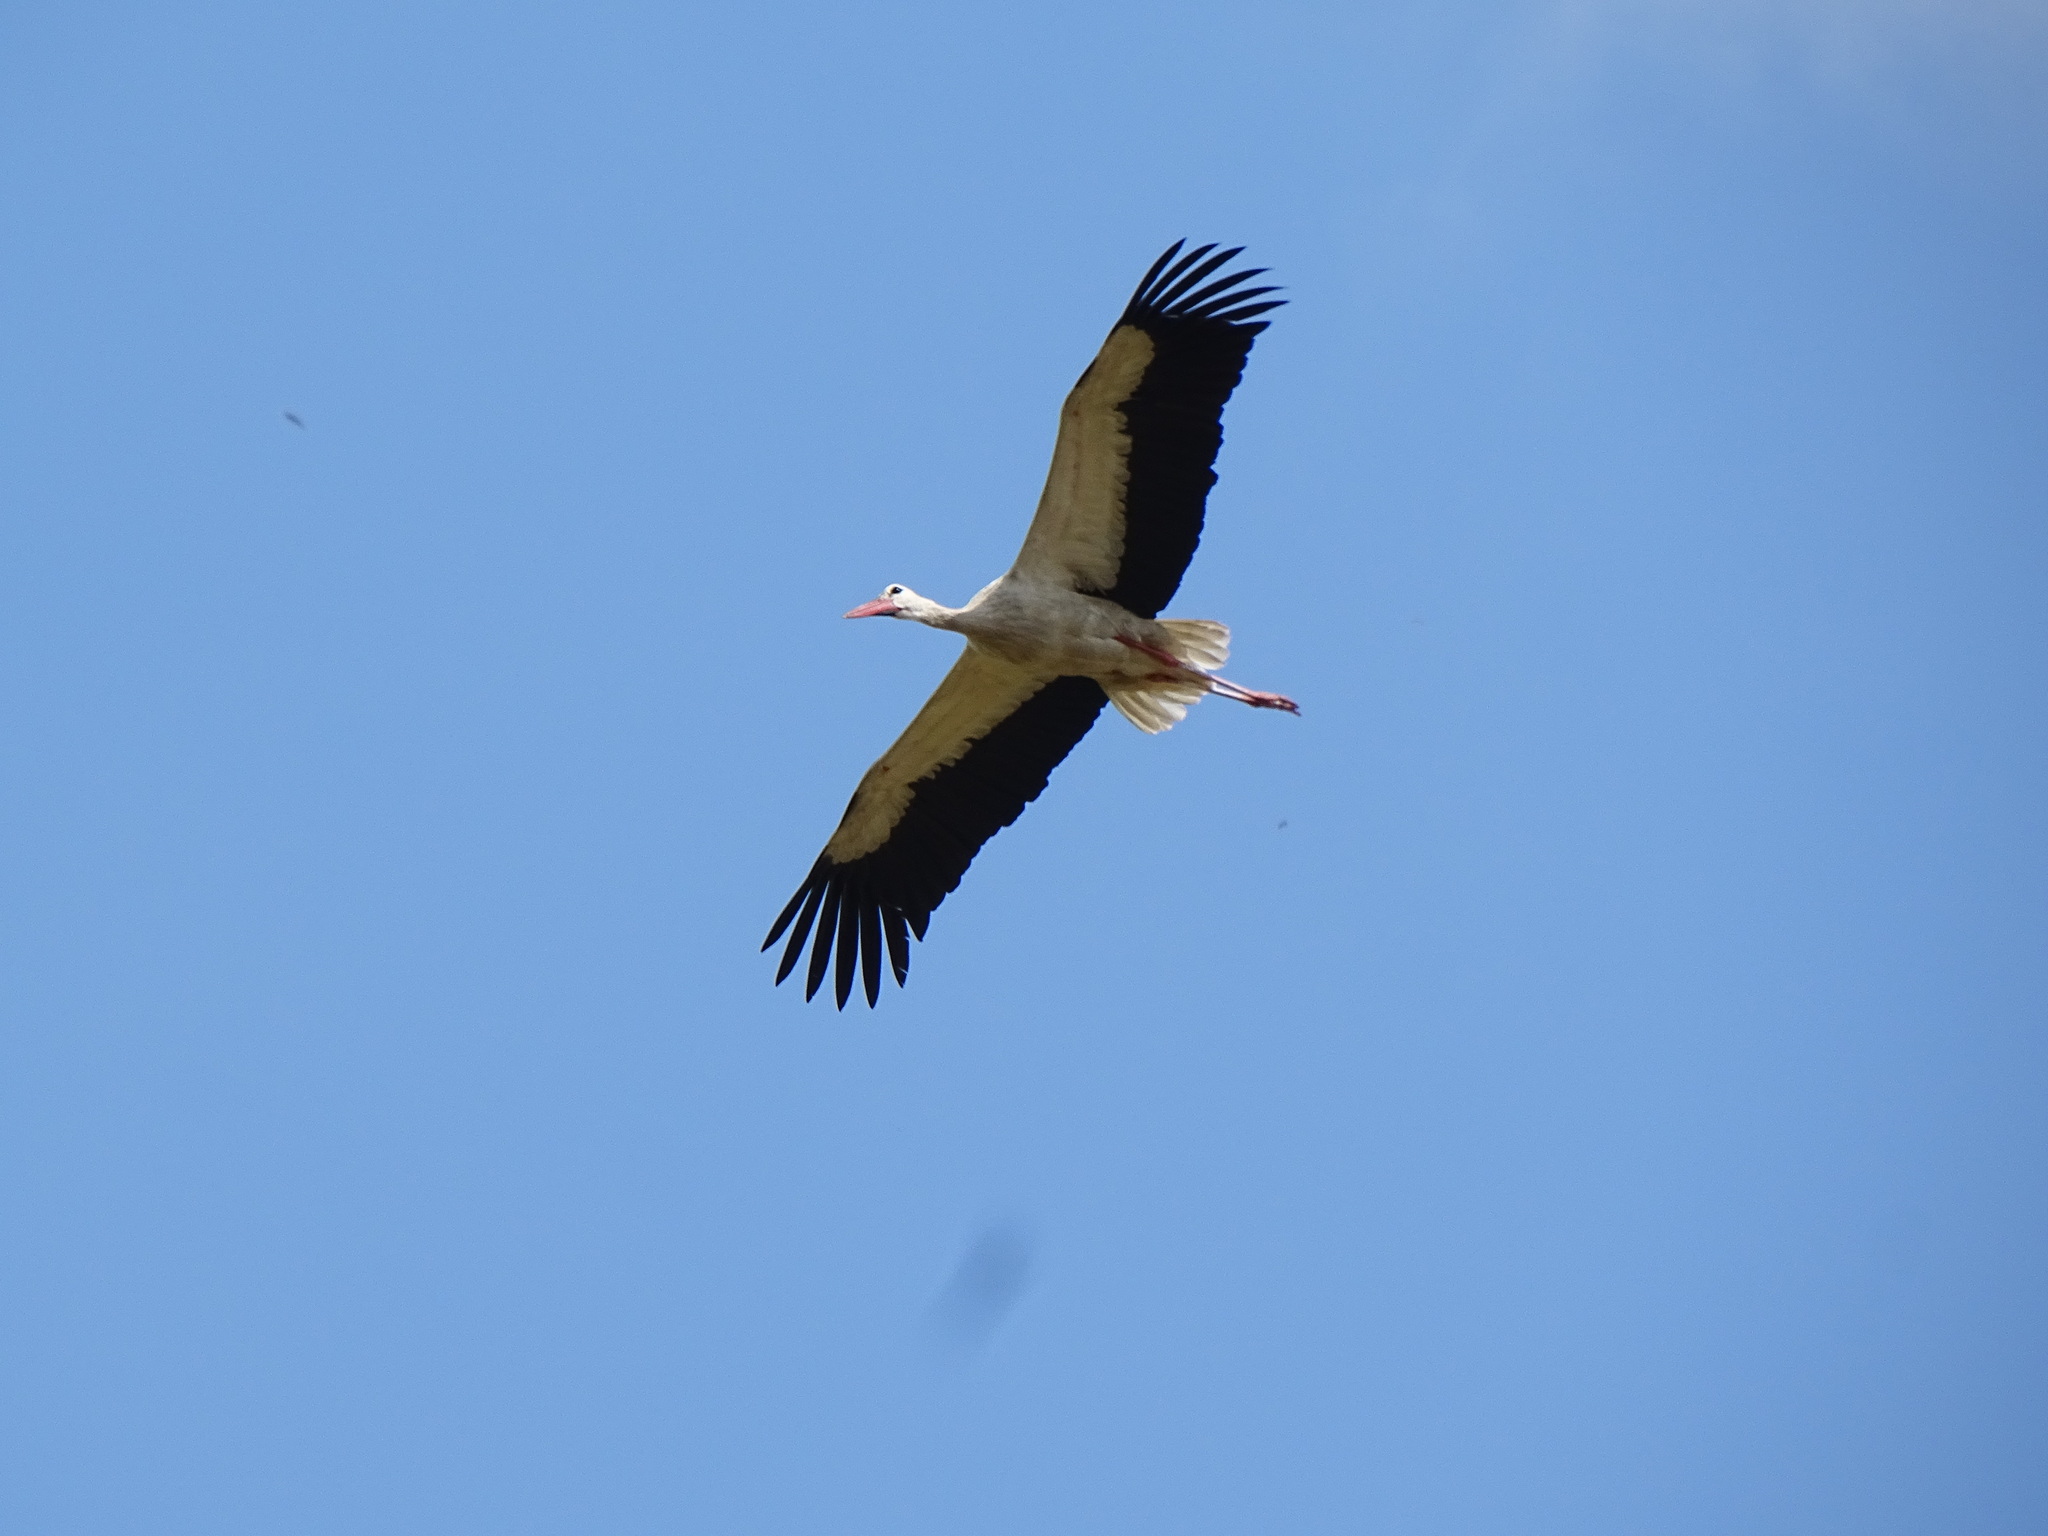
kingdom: Animalia
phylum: Chordata
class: Aves
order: Ciconiiformes
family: Ciconiidae
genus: Ciconia
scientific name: Ciconia ciconia
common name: White stork
